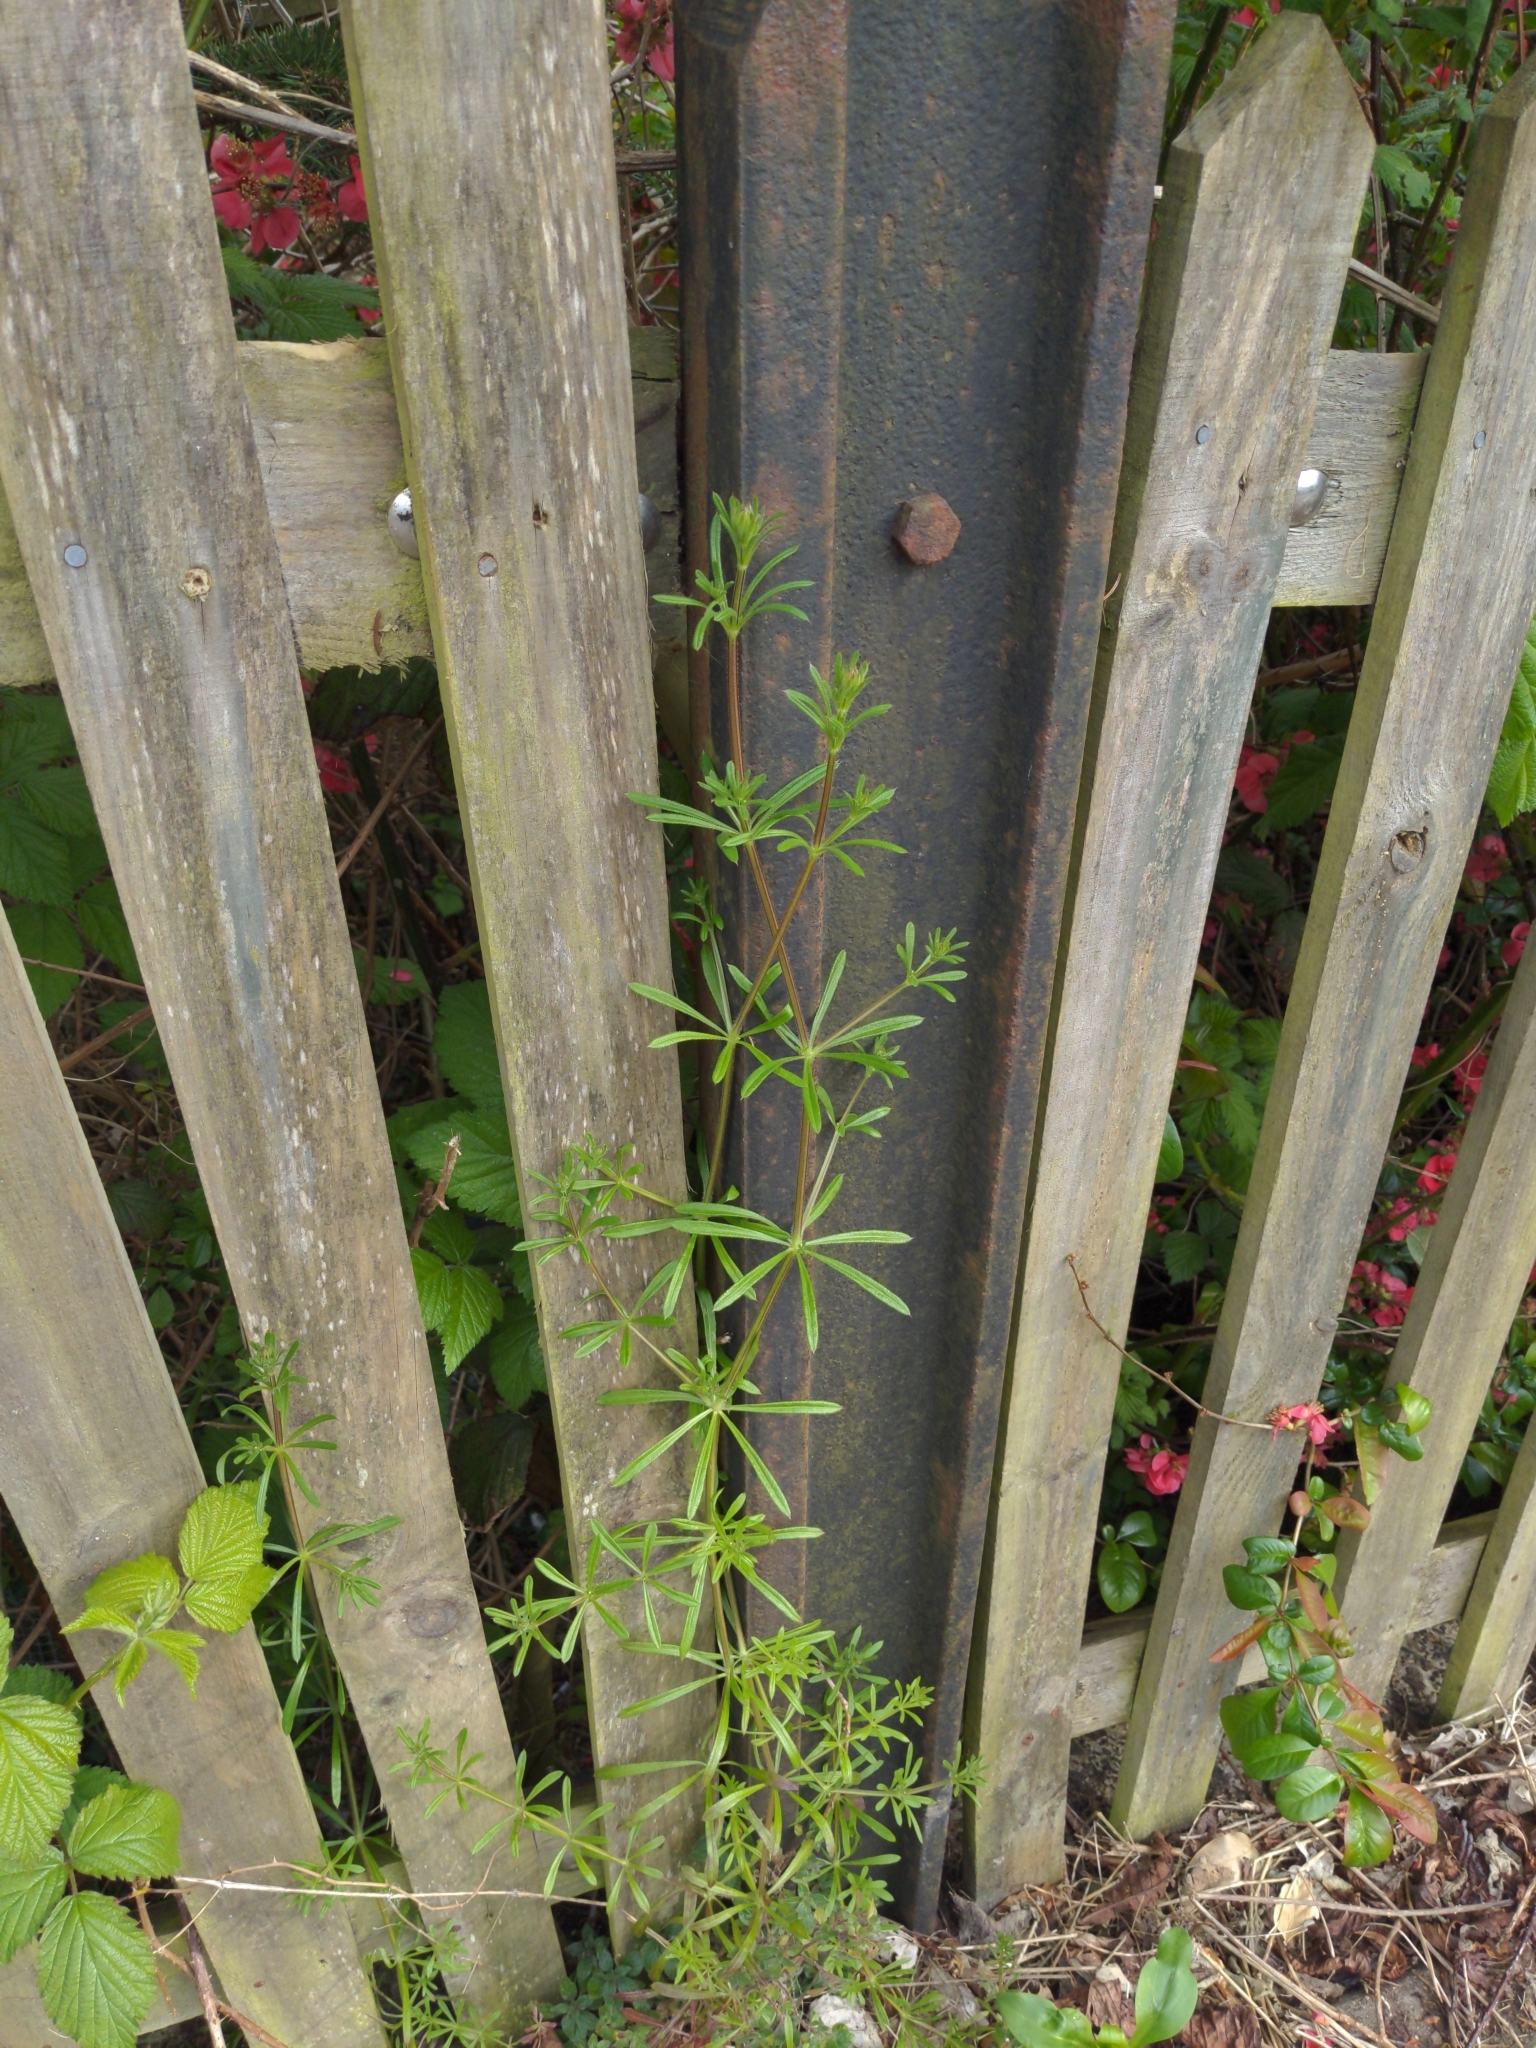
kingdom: Plantae
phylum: Tracheophyta
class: Magnoliopsida
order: Gentianales
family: Rubiaceae
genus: Galium
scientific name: Galium aparine
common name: Cleavers
